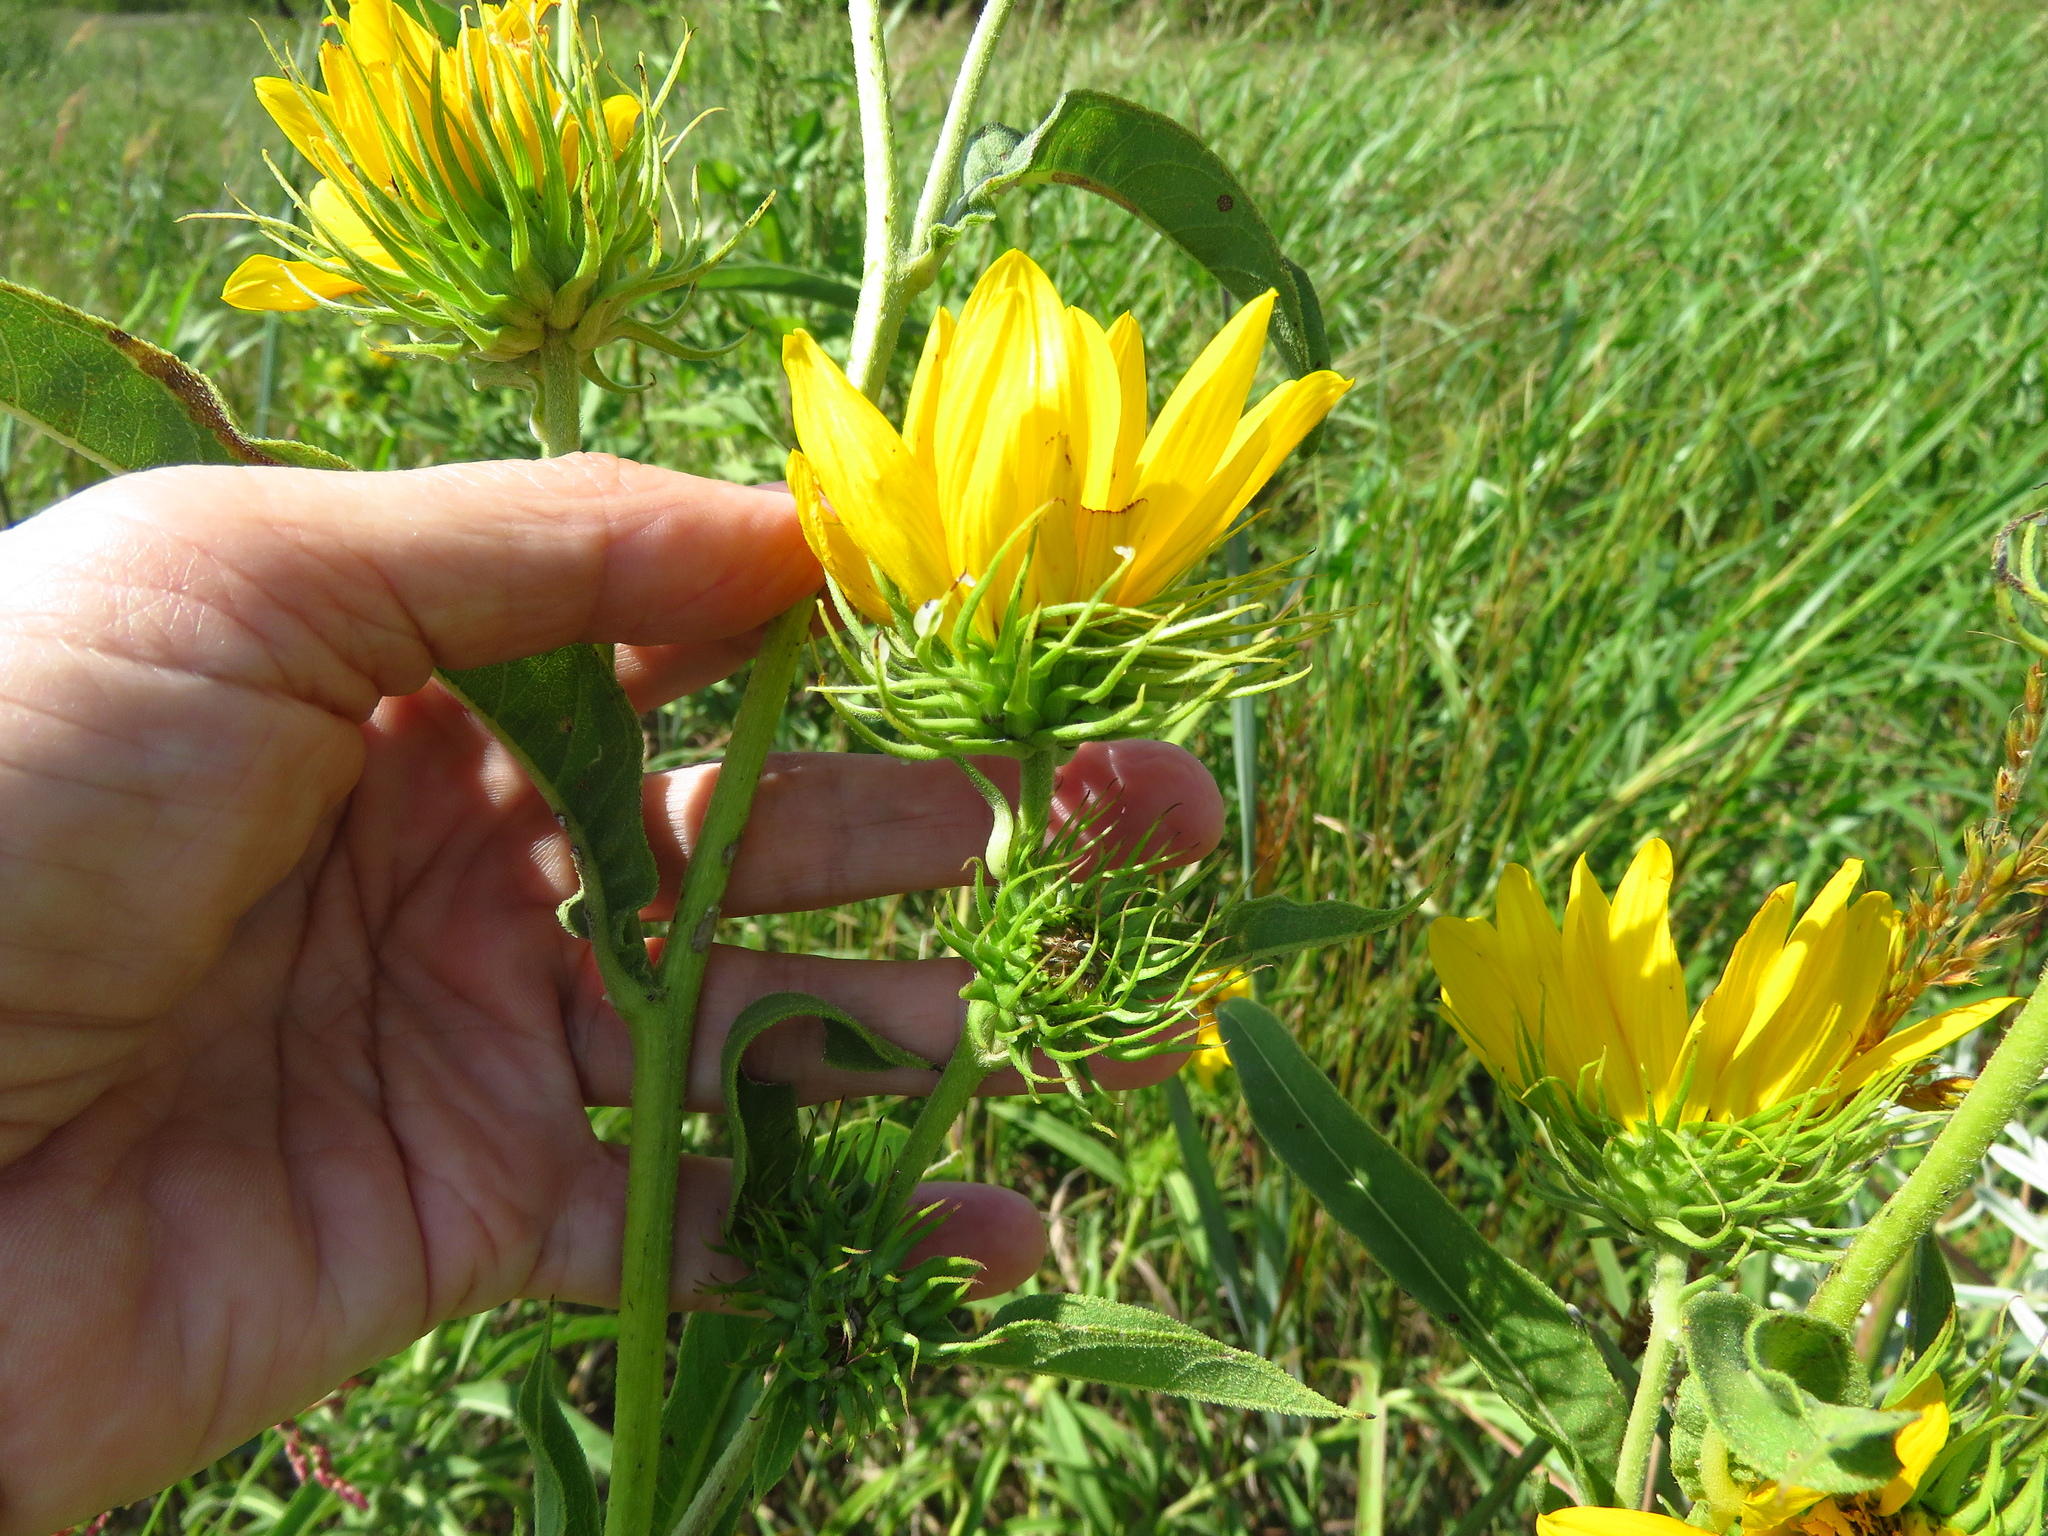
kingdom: Plantae
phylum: Tracheophyta
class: Magnoliopsida
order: Asterales
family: Asteraceae
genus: Helianthus
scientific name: Helianthus maximiliani
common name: Maximilian's sunflower
